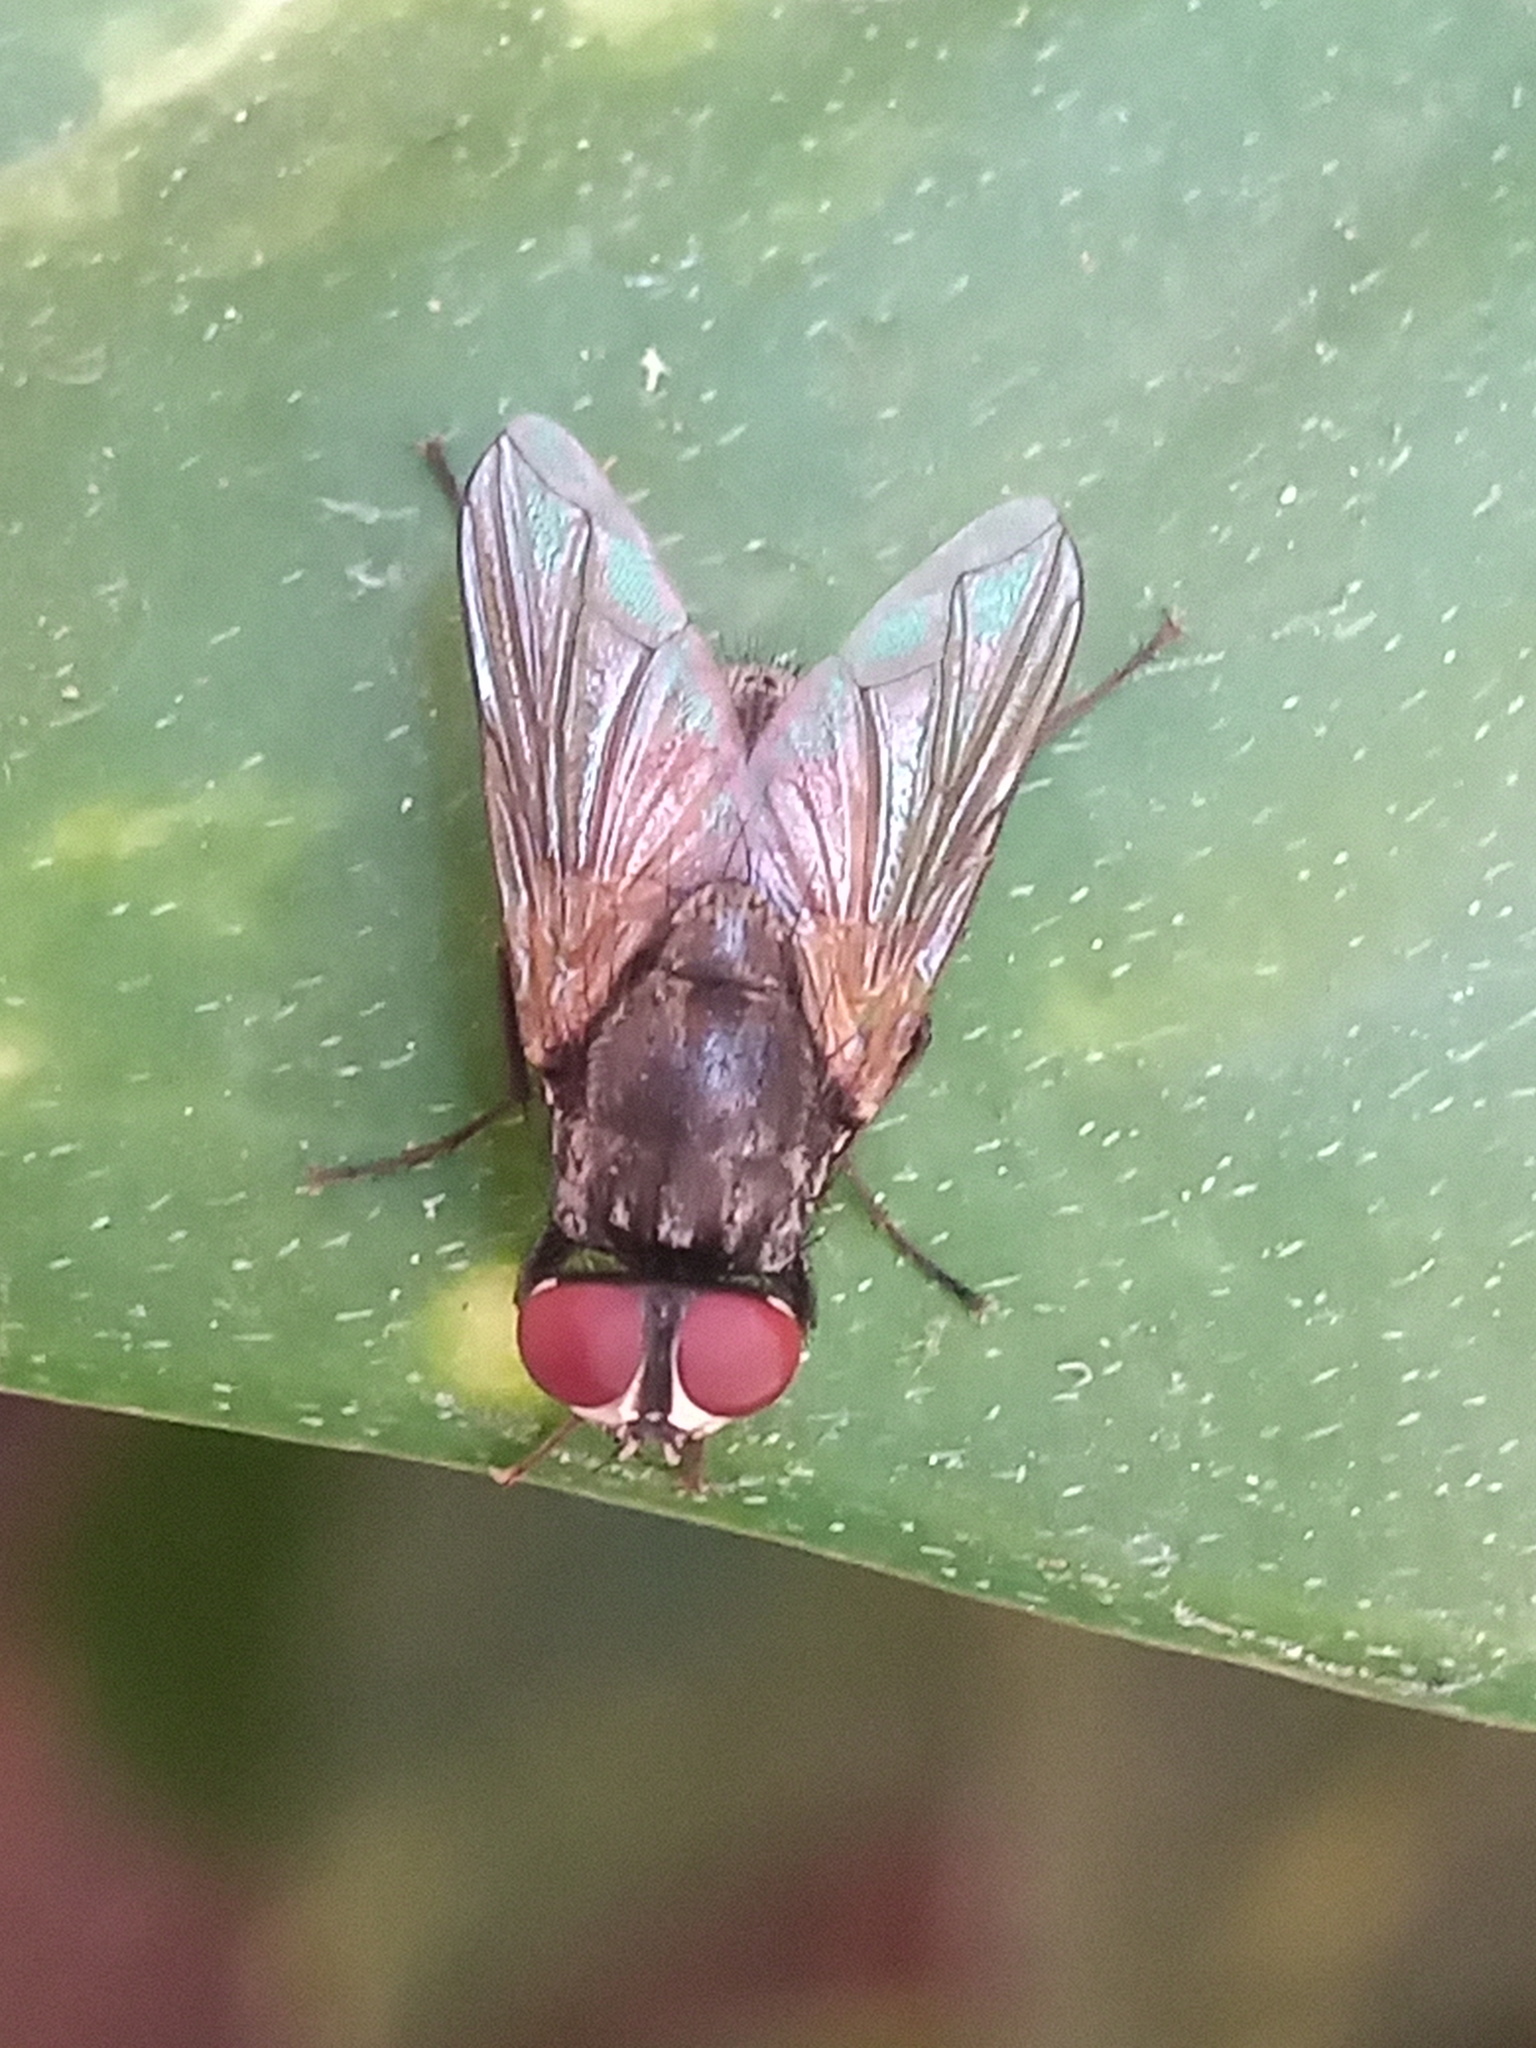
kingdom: Animalia
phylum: Arthropoda
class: Insecta
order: Diptera
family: Muscidae
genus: Musca
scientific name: Musca domestica
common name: House fly
